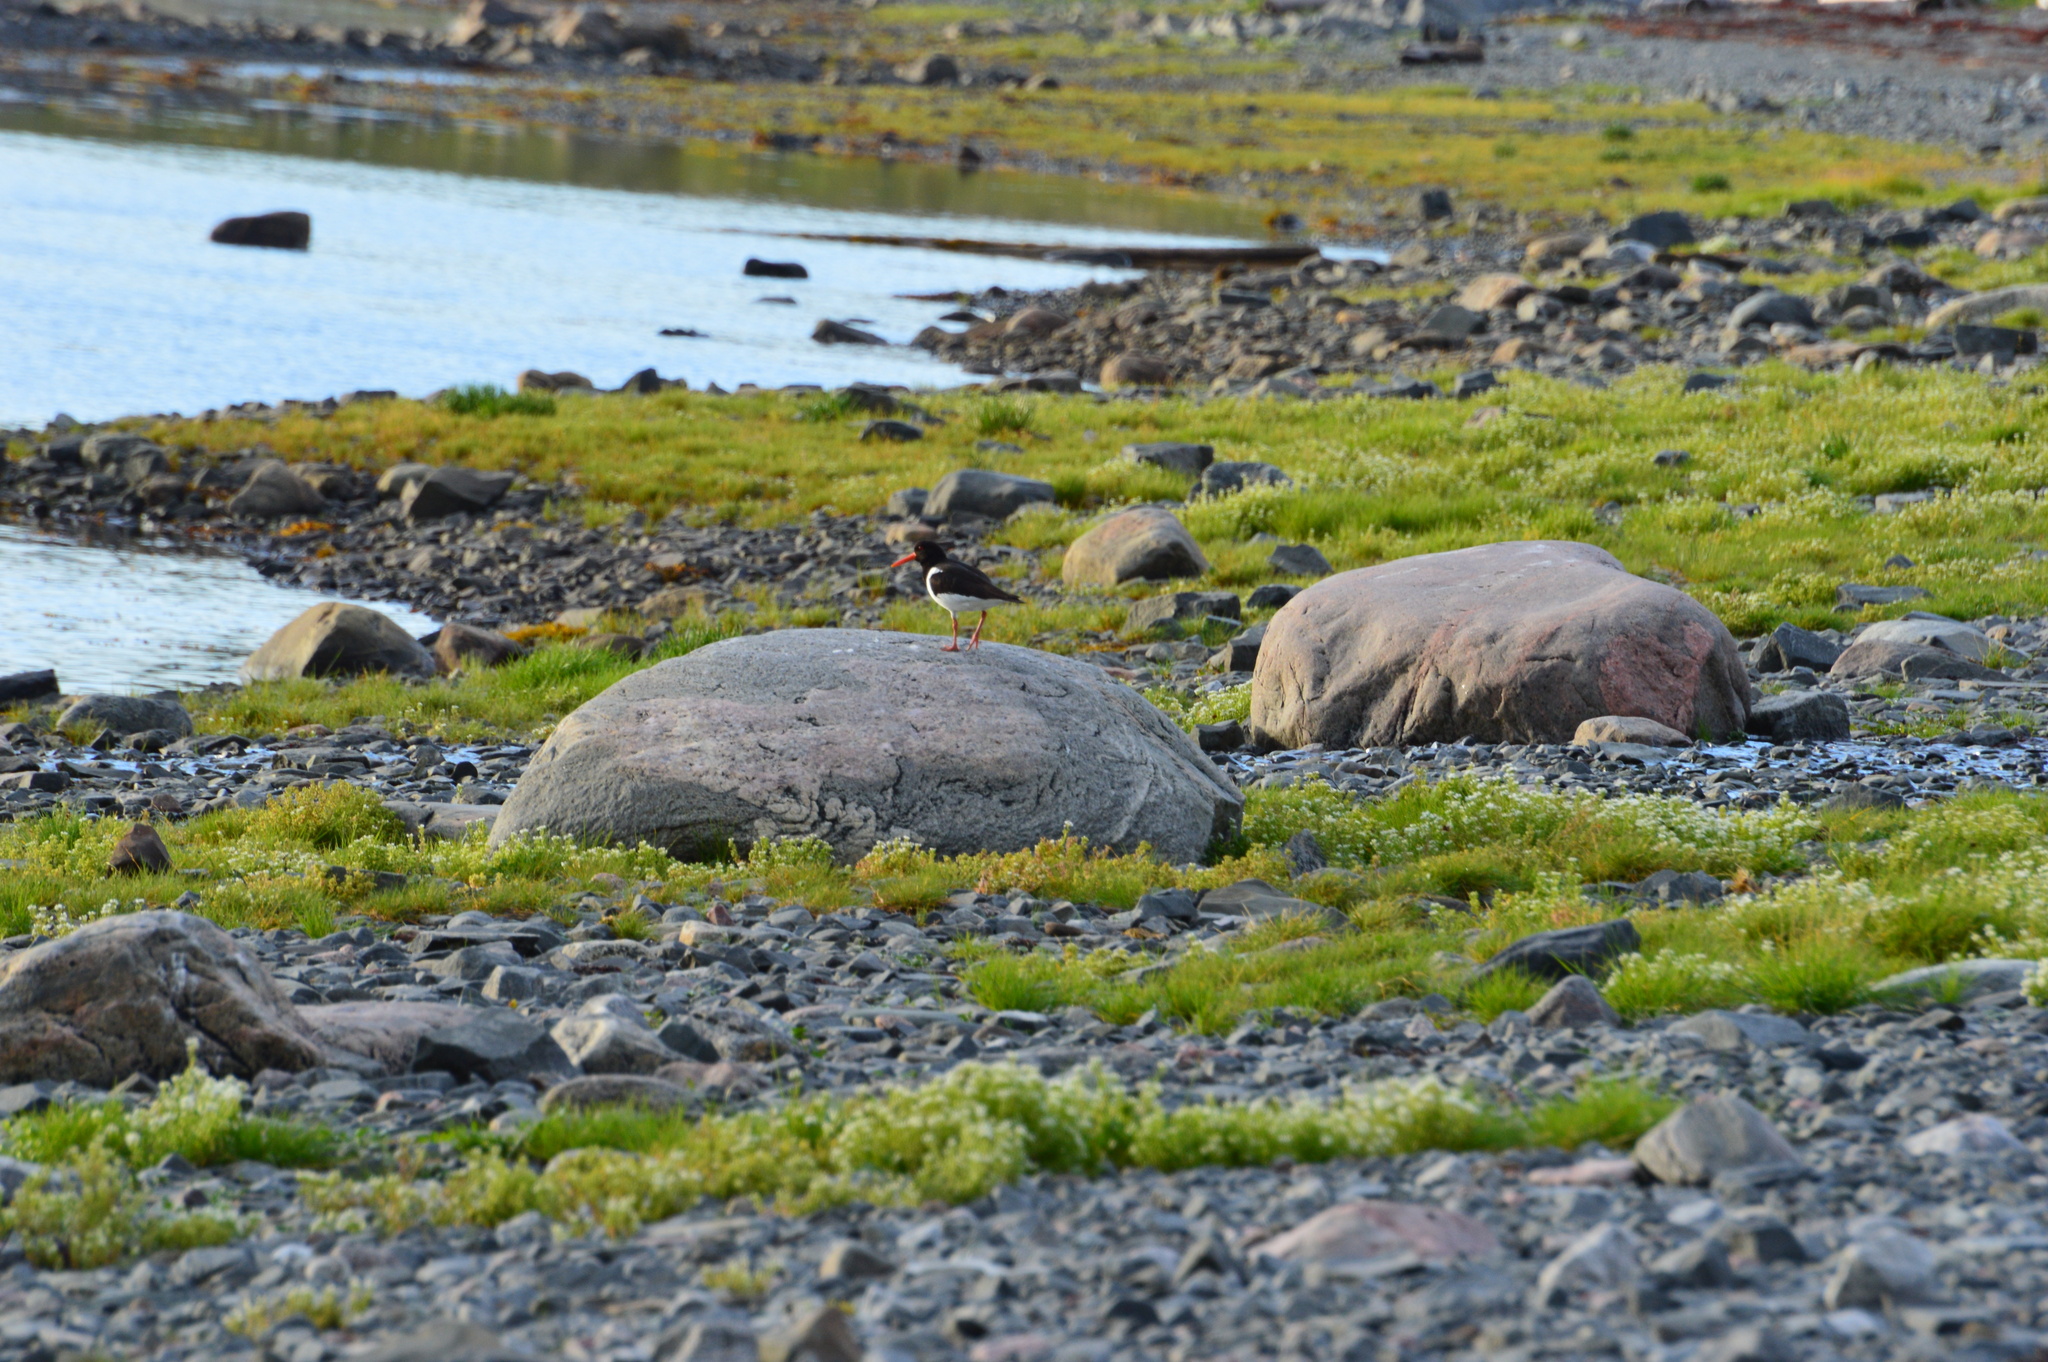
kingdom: Animalia
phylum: Chordata
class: Aves
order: Charadriiformes
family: Haematopodidae
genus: Haematopus
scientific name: Haematopus ostralegus
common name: Eurasian oystercatcher
